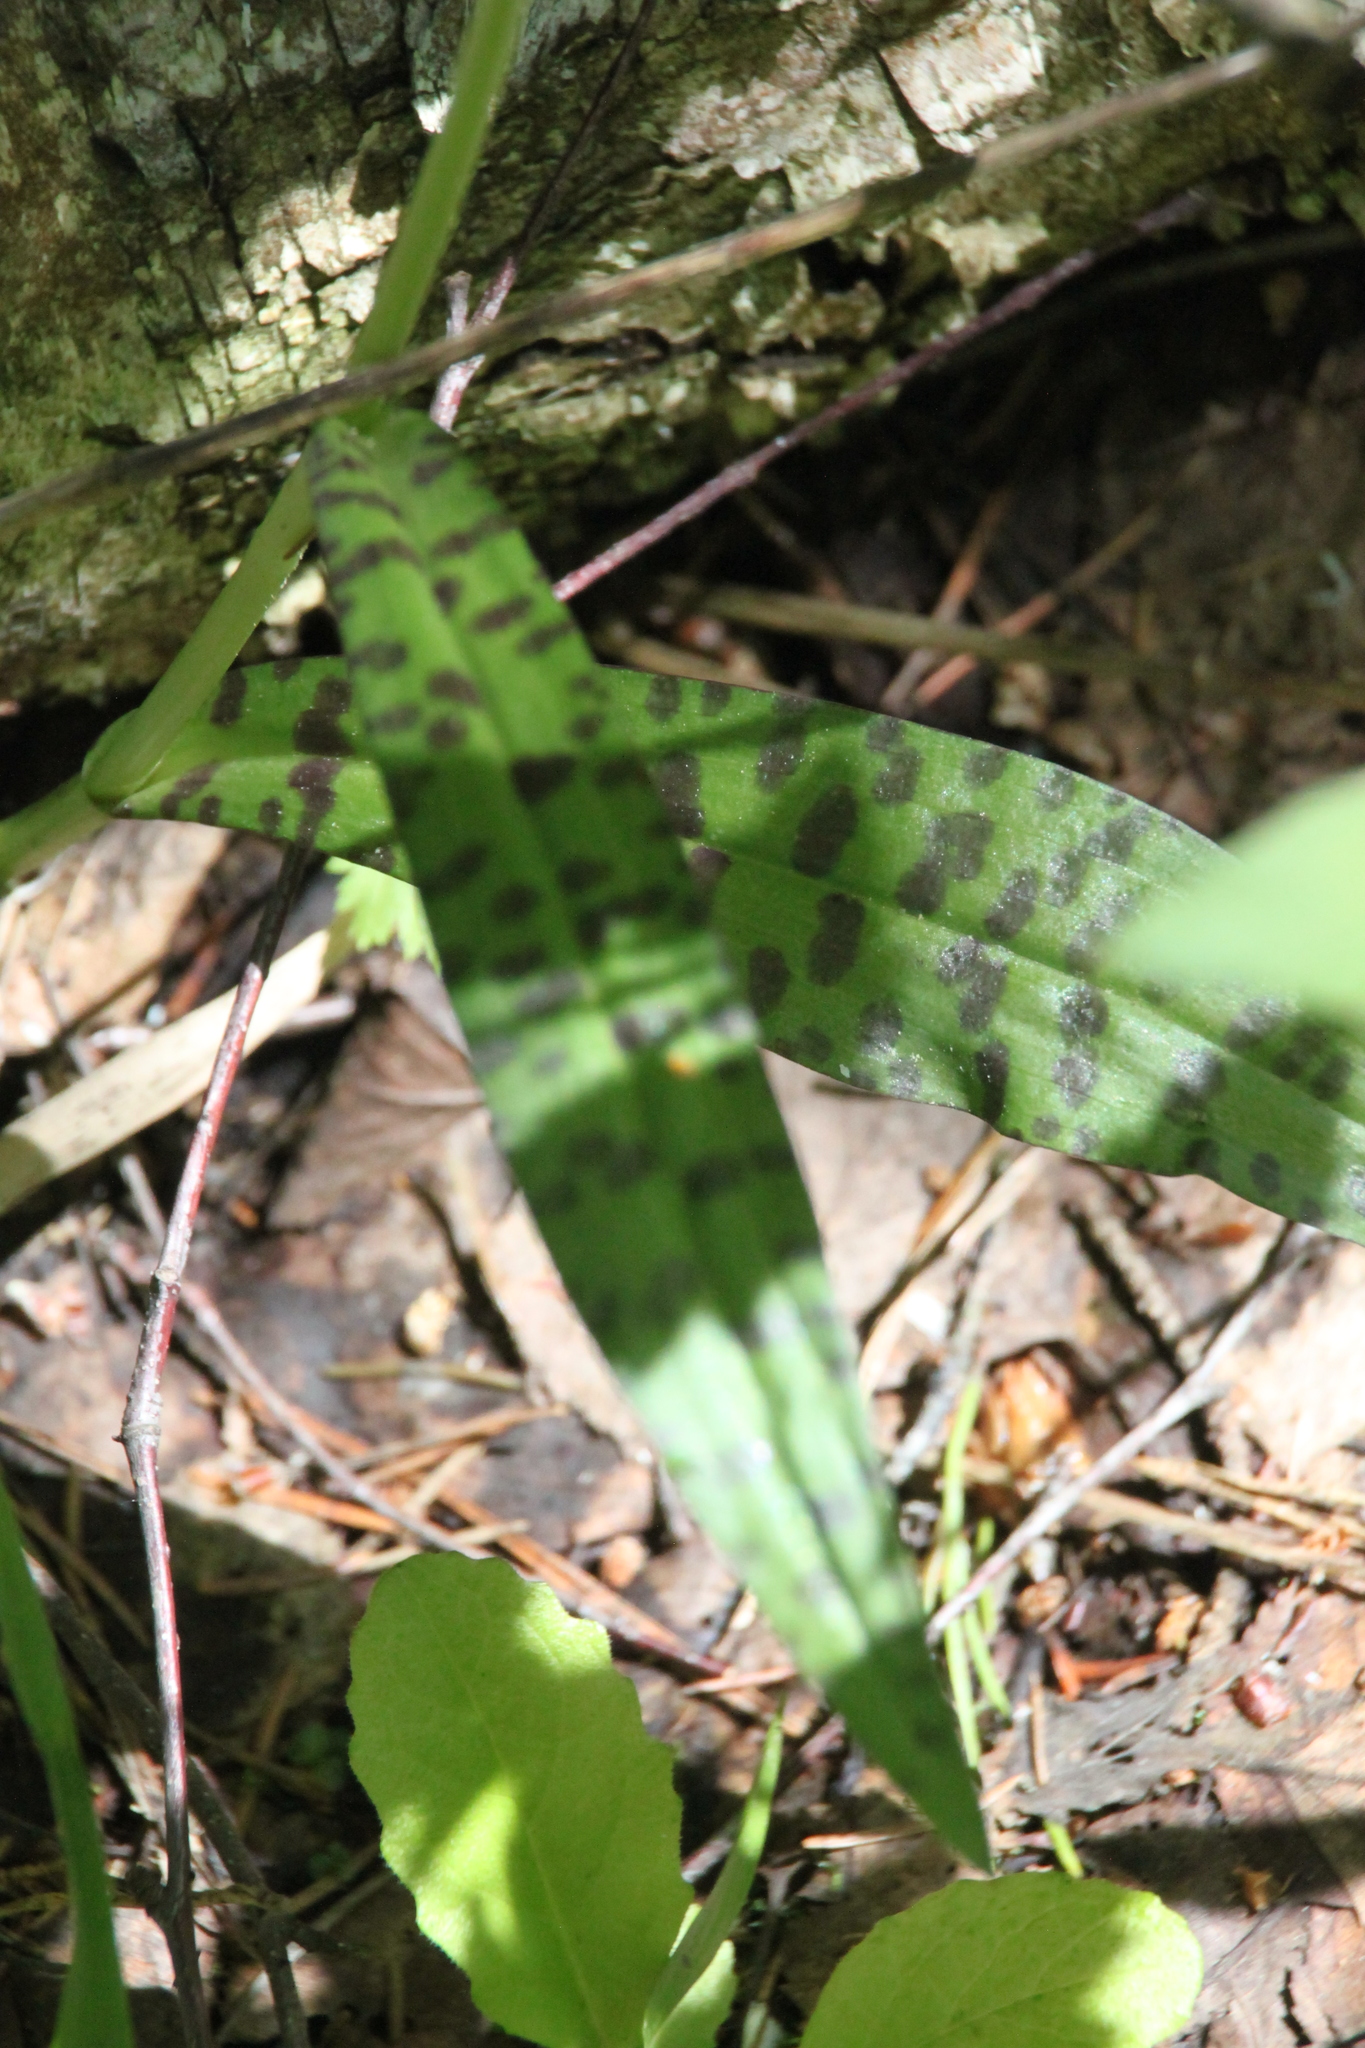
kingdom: Plantae
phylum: Tracheophyta
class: Liliopsida
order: Asparagales
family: Orchidaceae
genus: Dactylorhiza
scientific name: Dactylorhiza maculata
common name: Heath spotted-orchid
